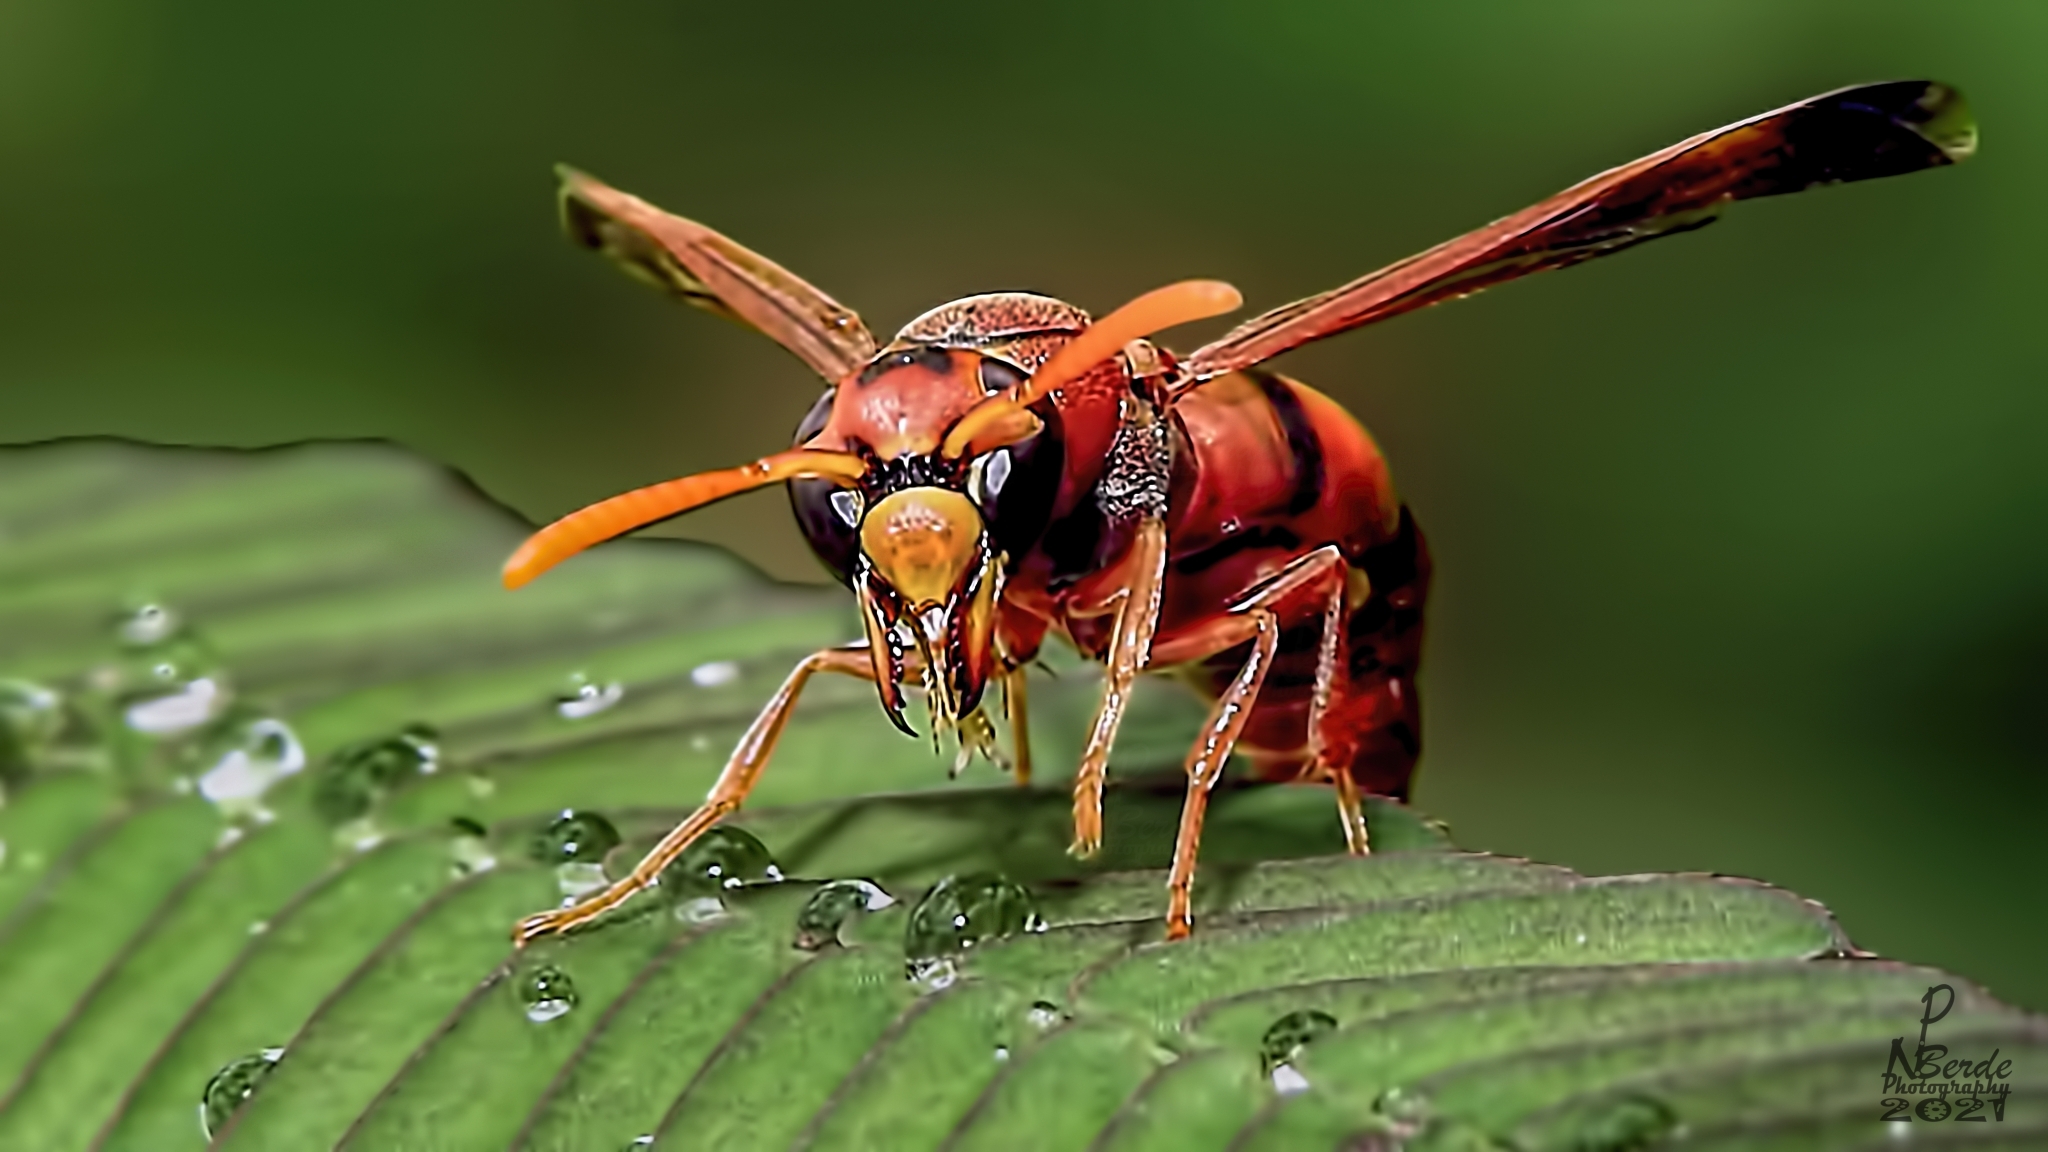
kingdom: Animalia
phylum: Arthropoda
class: Insecta
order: Hymenoptera
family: Eumenidae
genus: Rhynchium
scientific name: Rhynchium brunneum
